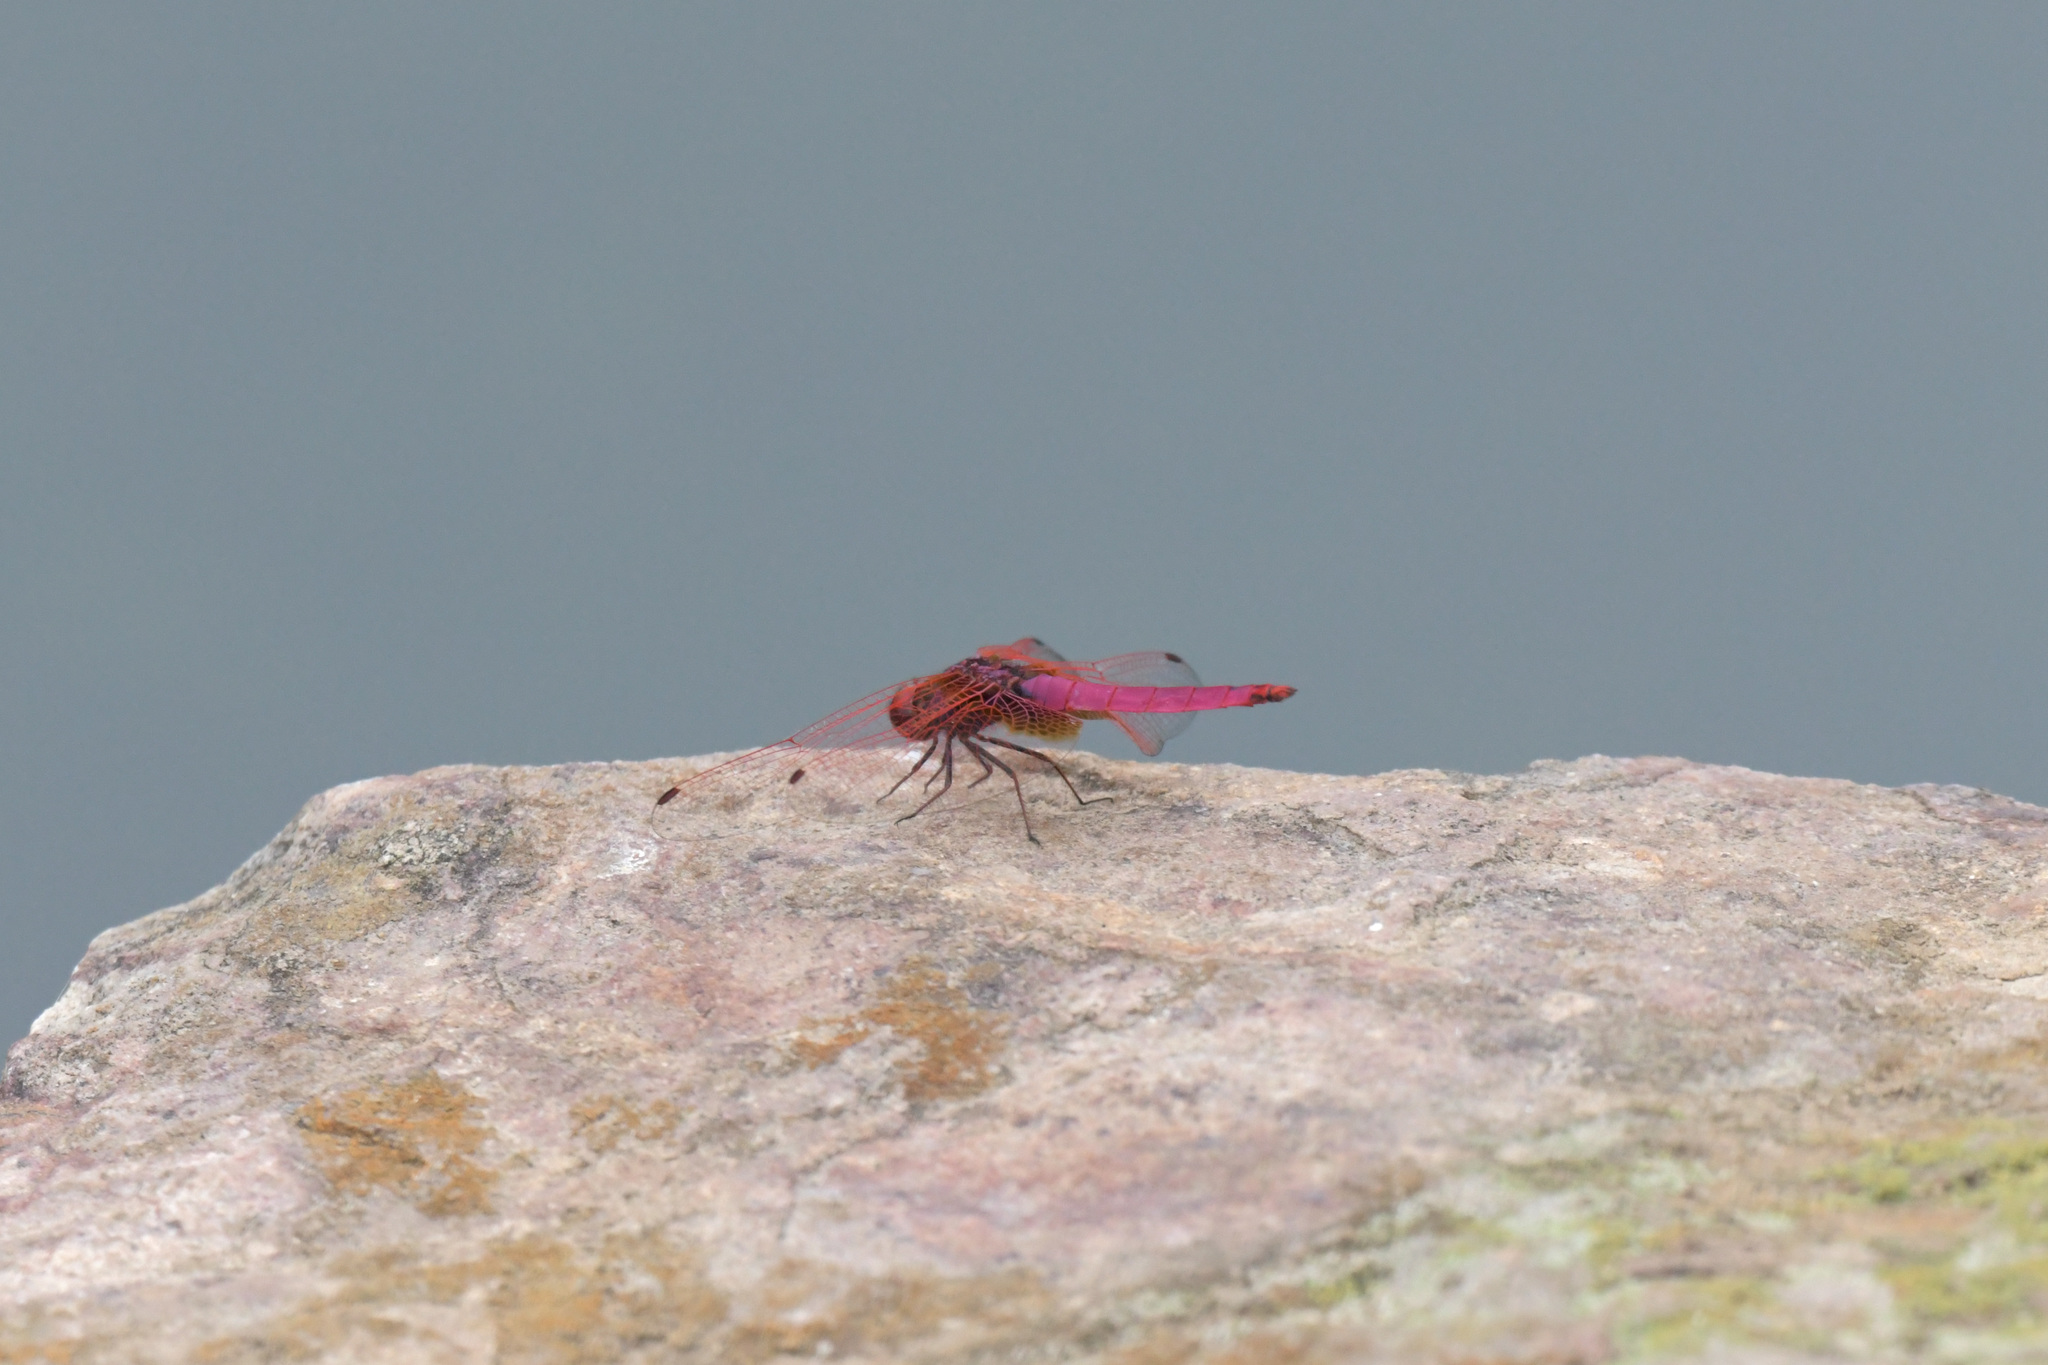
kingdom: Animalia
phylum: Arthropoda
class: Insecta
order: Odonata
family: Libellulidae
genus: Trithemis
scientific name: Trithemis aurora
